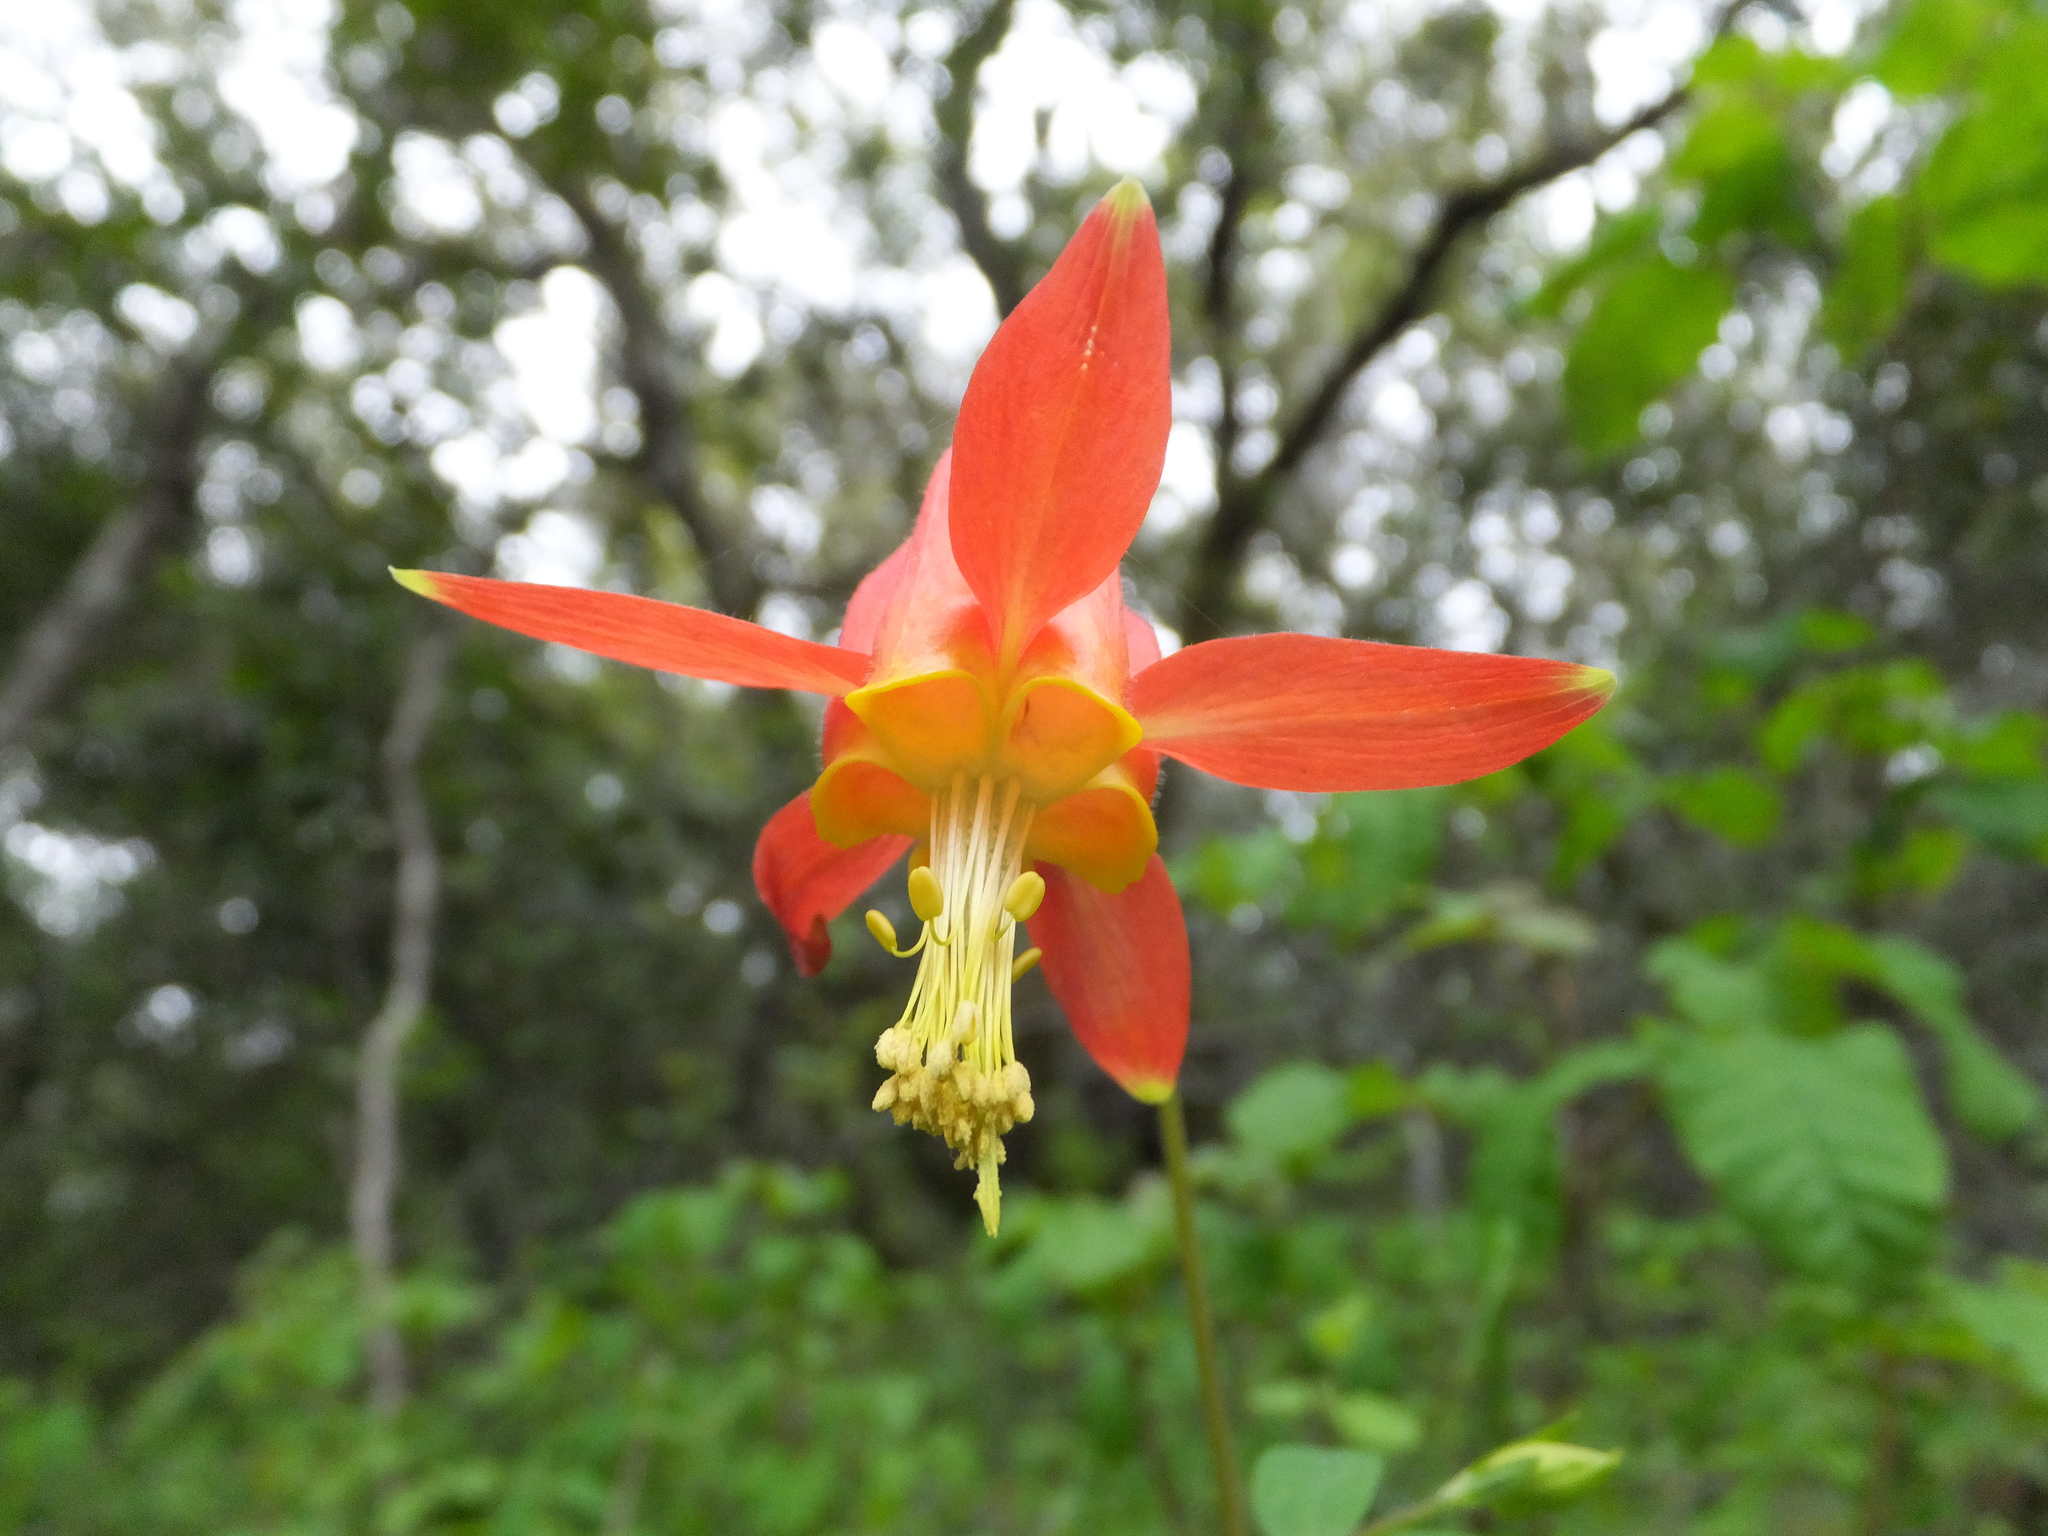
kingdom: Plantae
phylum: Tracheophyta
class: Magnoliopsida
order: Ranunculales
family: Ranunculaceae
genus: Aquilegia
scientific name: Aquilegia formosa
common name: Sitka columbine
